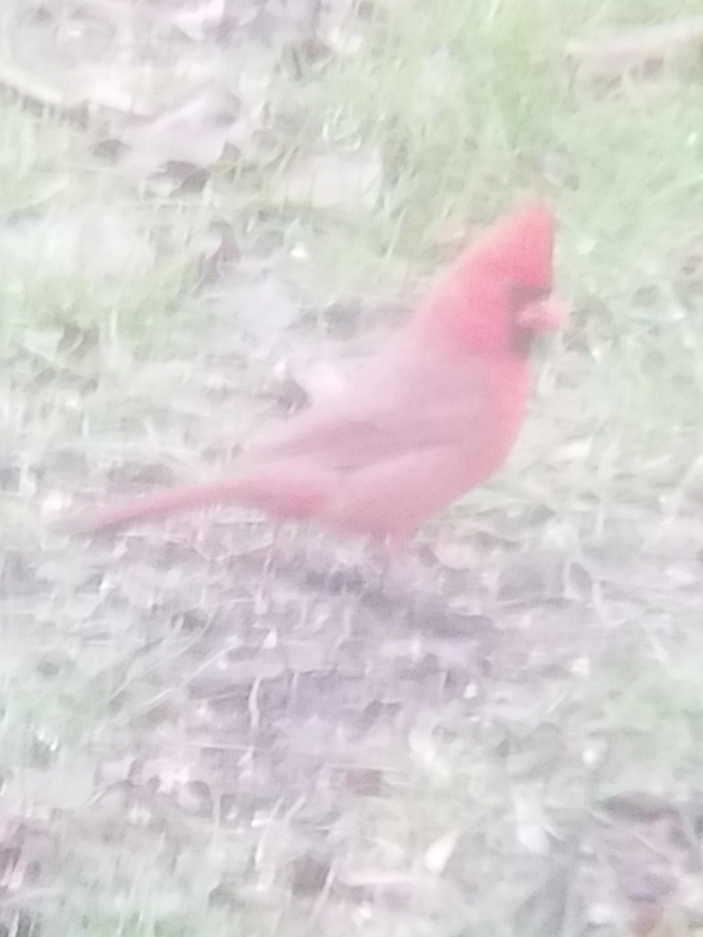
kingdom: Animalia
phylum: Chordata
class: Aves
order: Passeriformes
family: Cardinalidae
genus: Cardinalis
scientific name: Cardinalis cardinalis
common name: Northern cardinal
